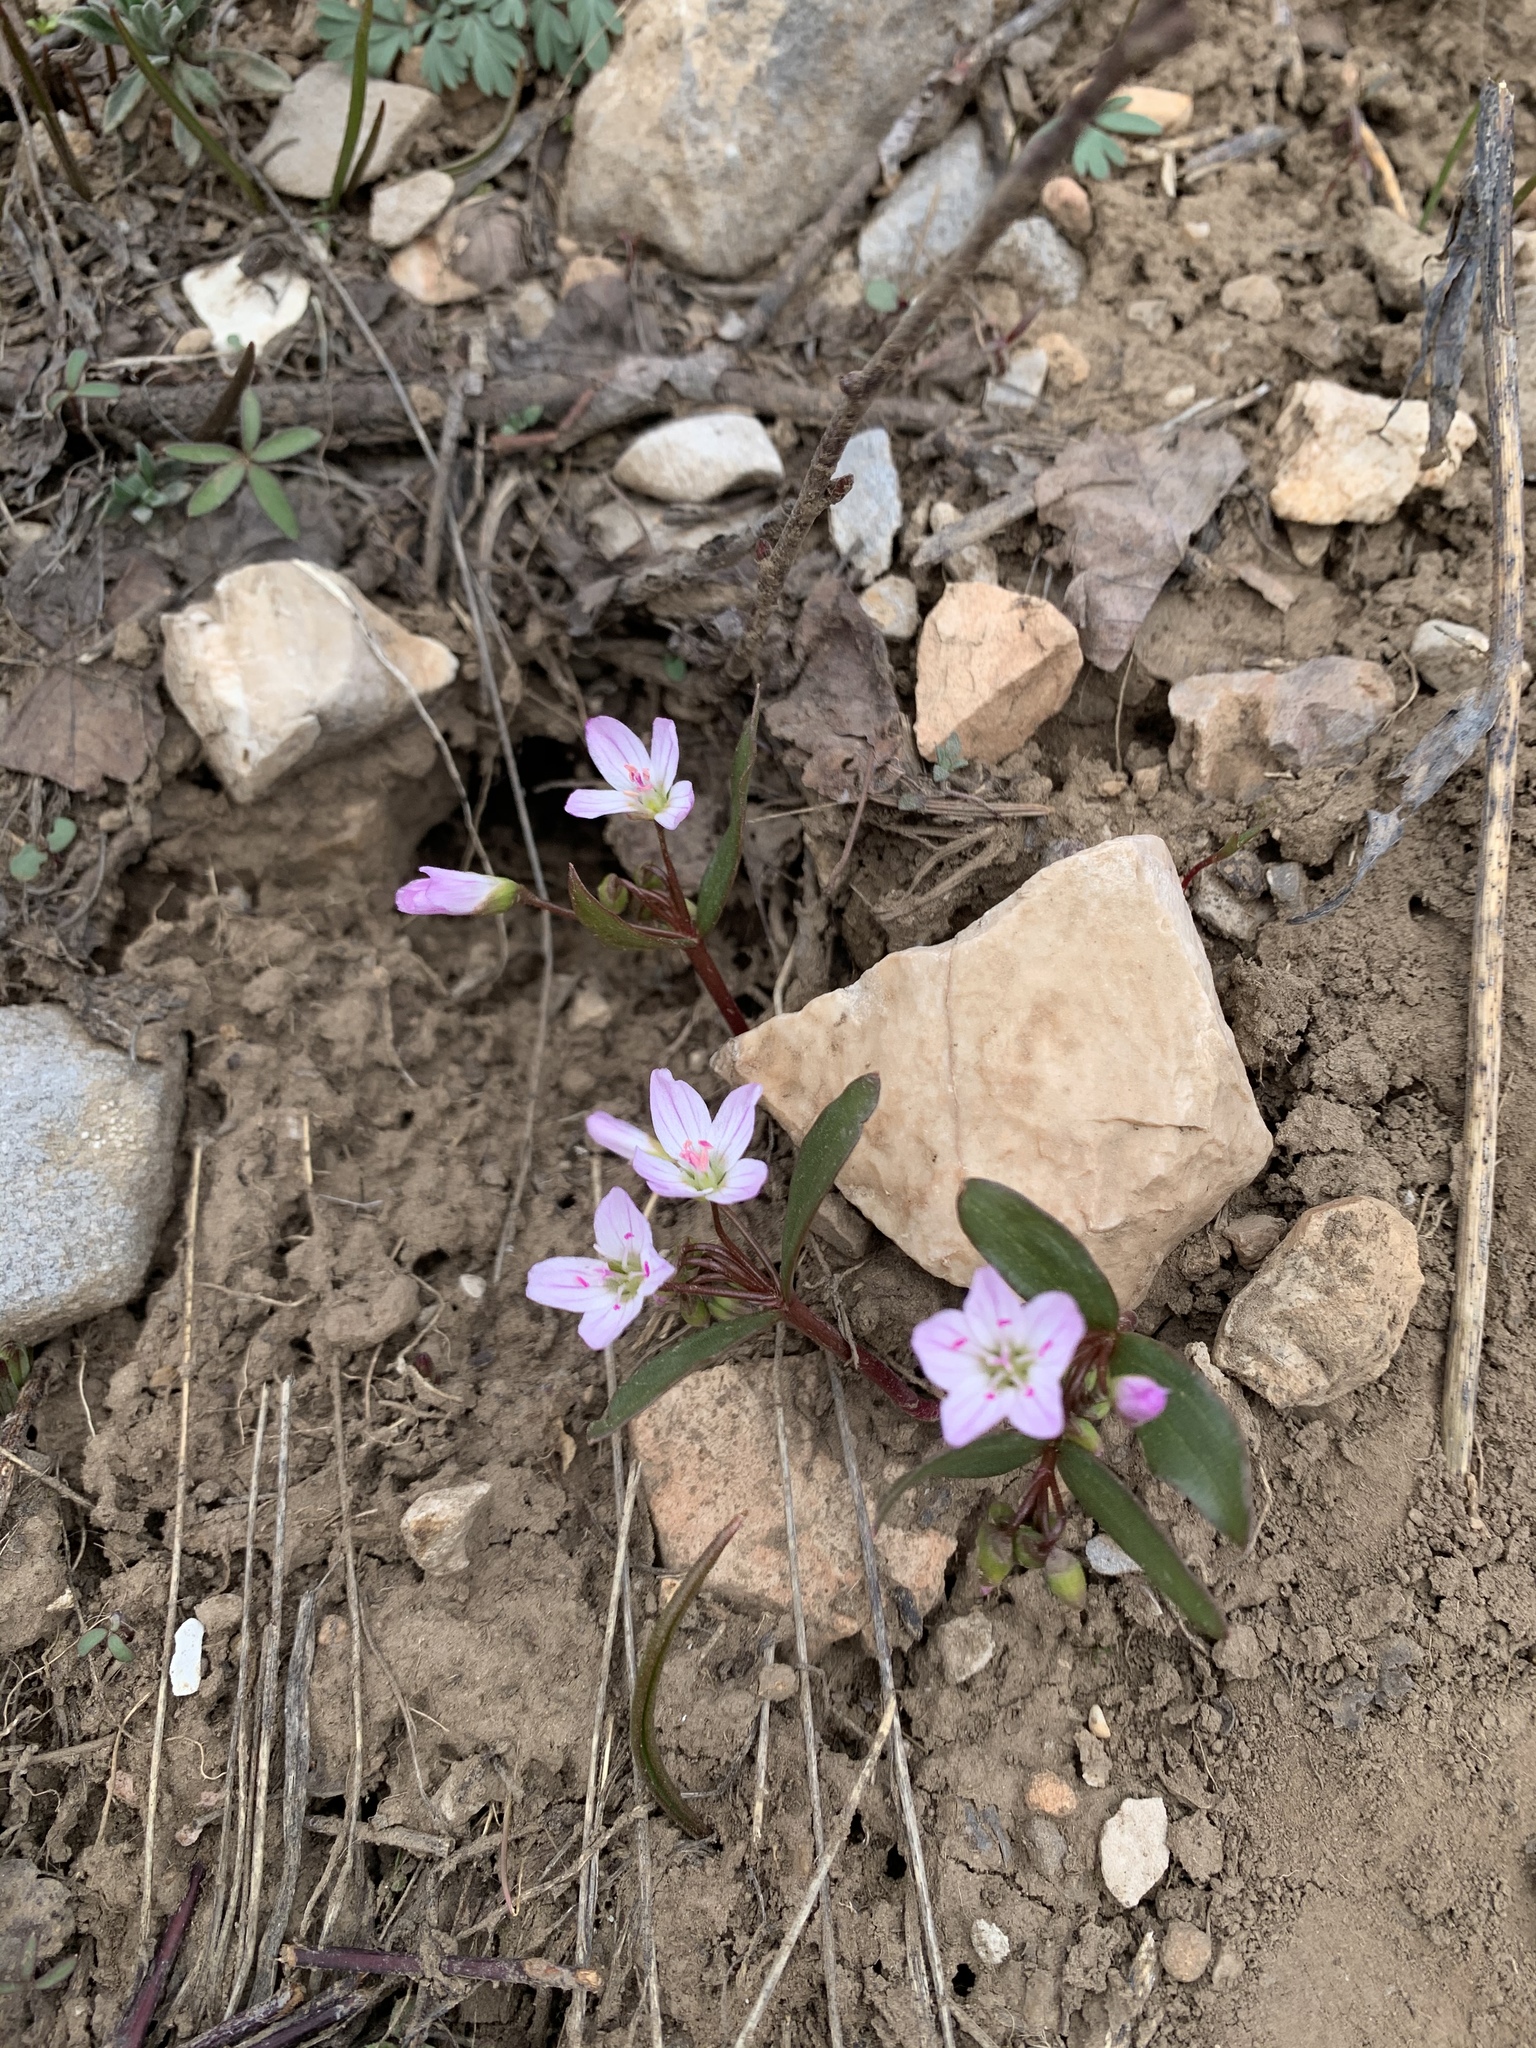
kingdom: Plantae
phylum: Tracheophyta
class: Magnoliopsida
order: Caryophyllales
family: Montiaceae
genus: Claytonia
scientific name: Claytonia lanceolata
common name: Western spring-beauty
